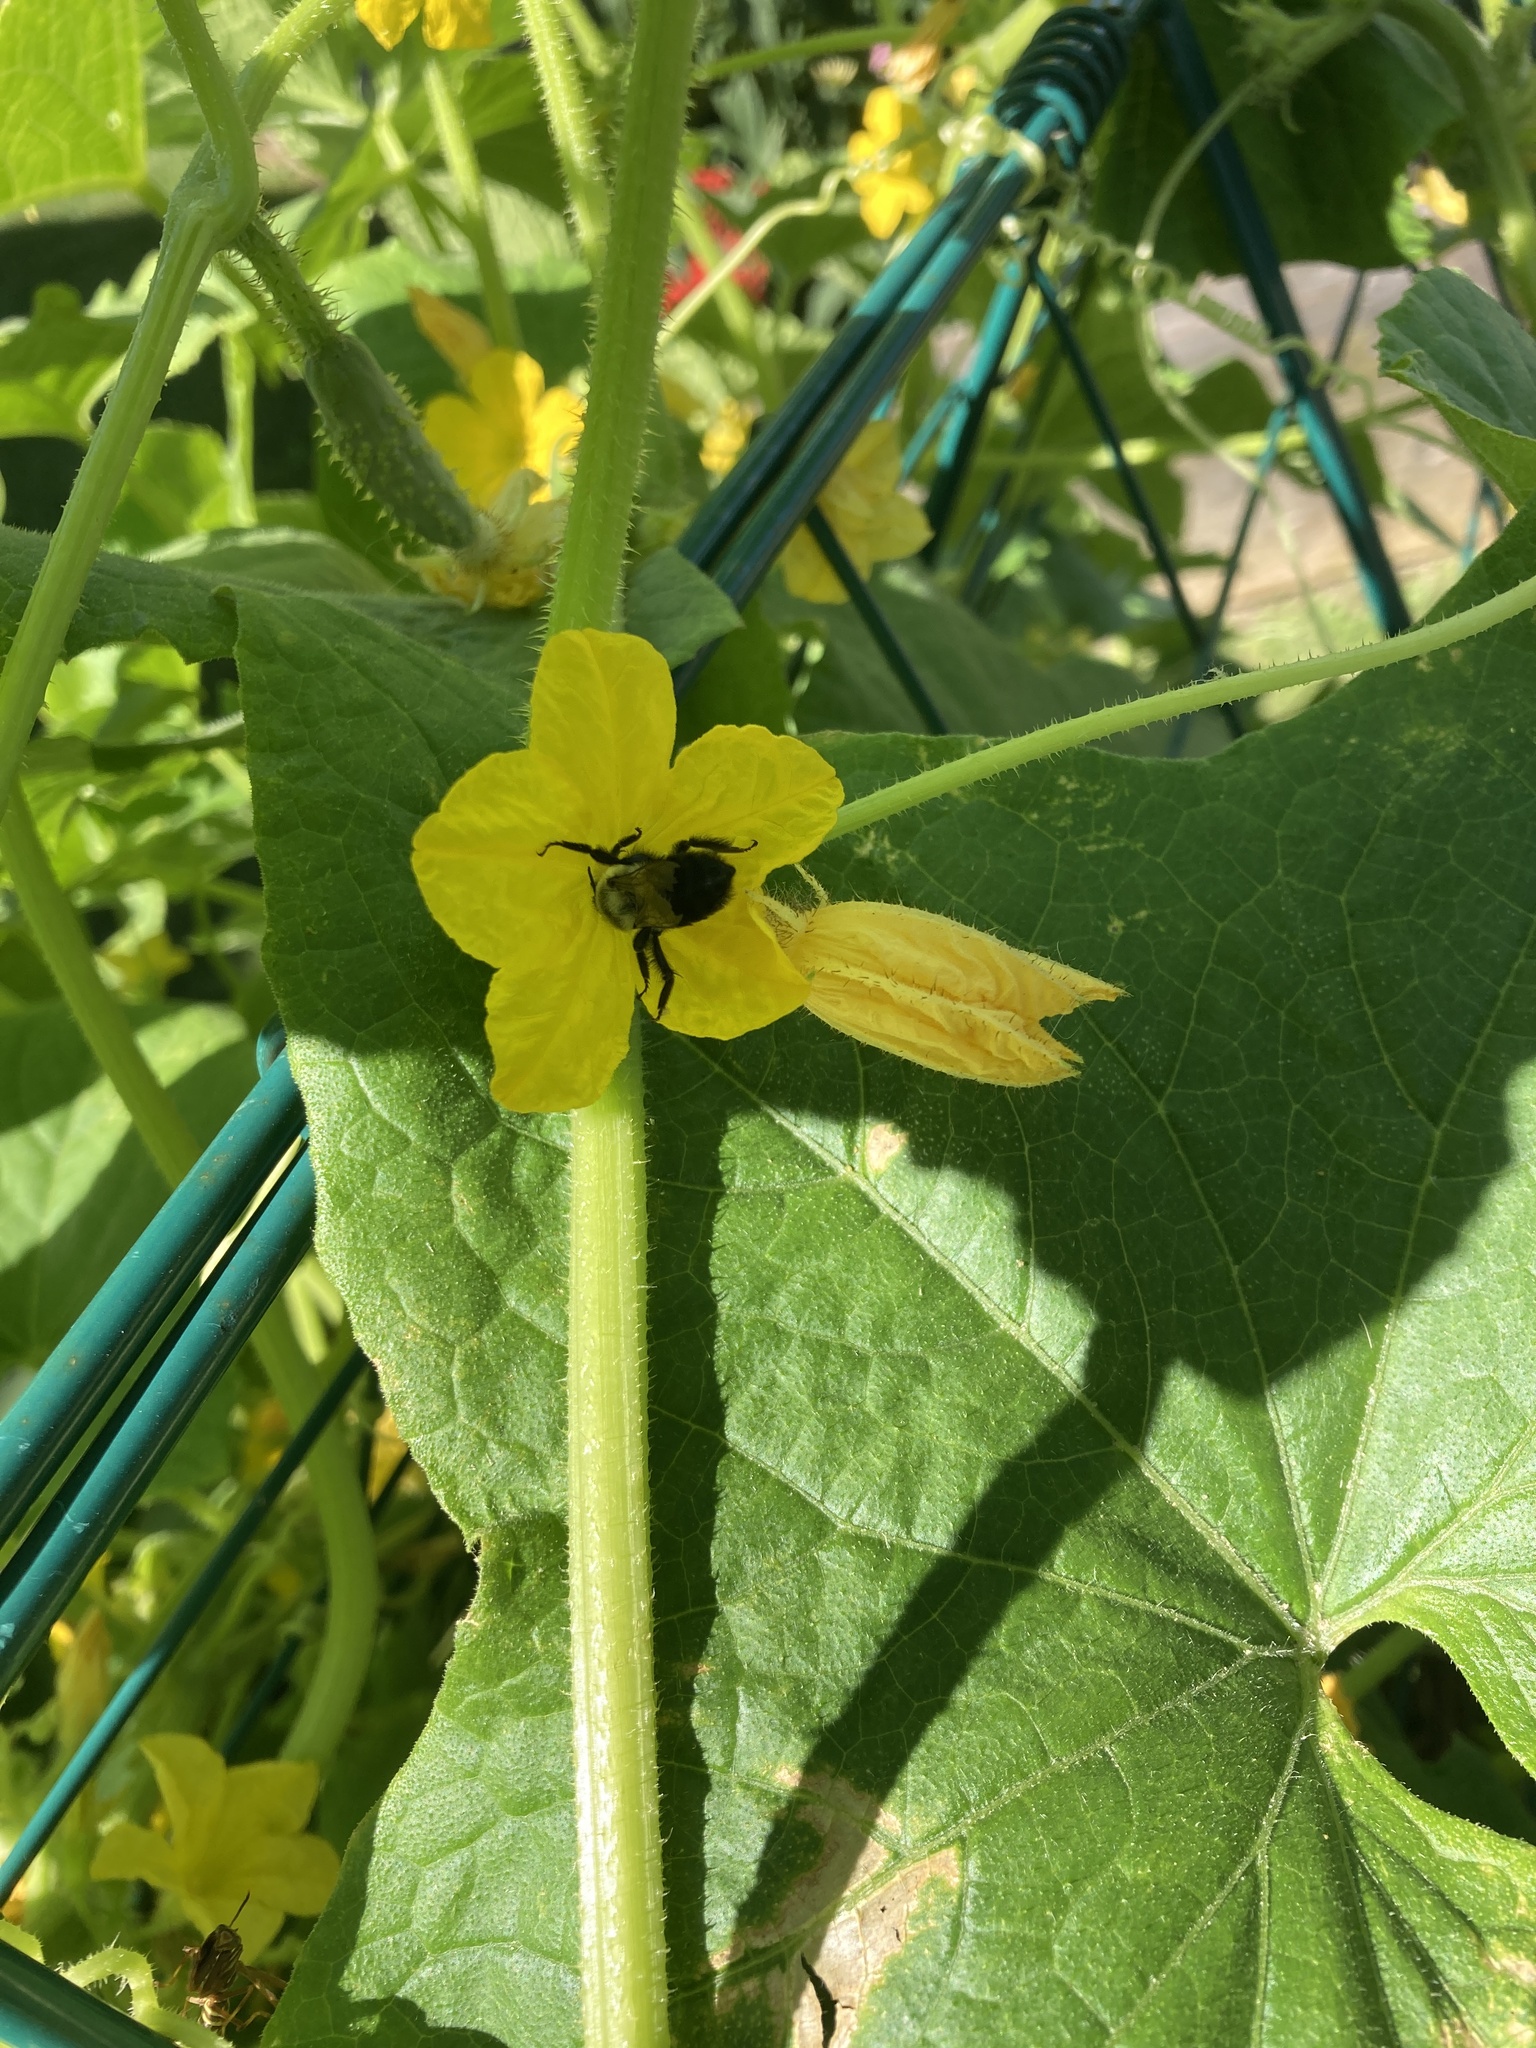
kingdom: Animalia
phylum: Arthropoda
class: Insecta
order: Hymenoptera
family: Apidae
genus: Bombus
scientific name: Bombus impatiens
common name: Common eastern bumble bee
